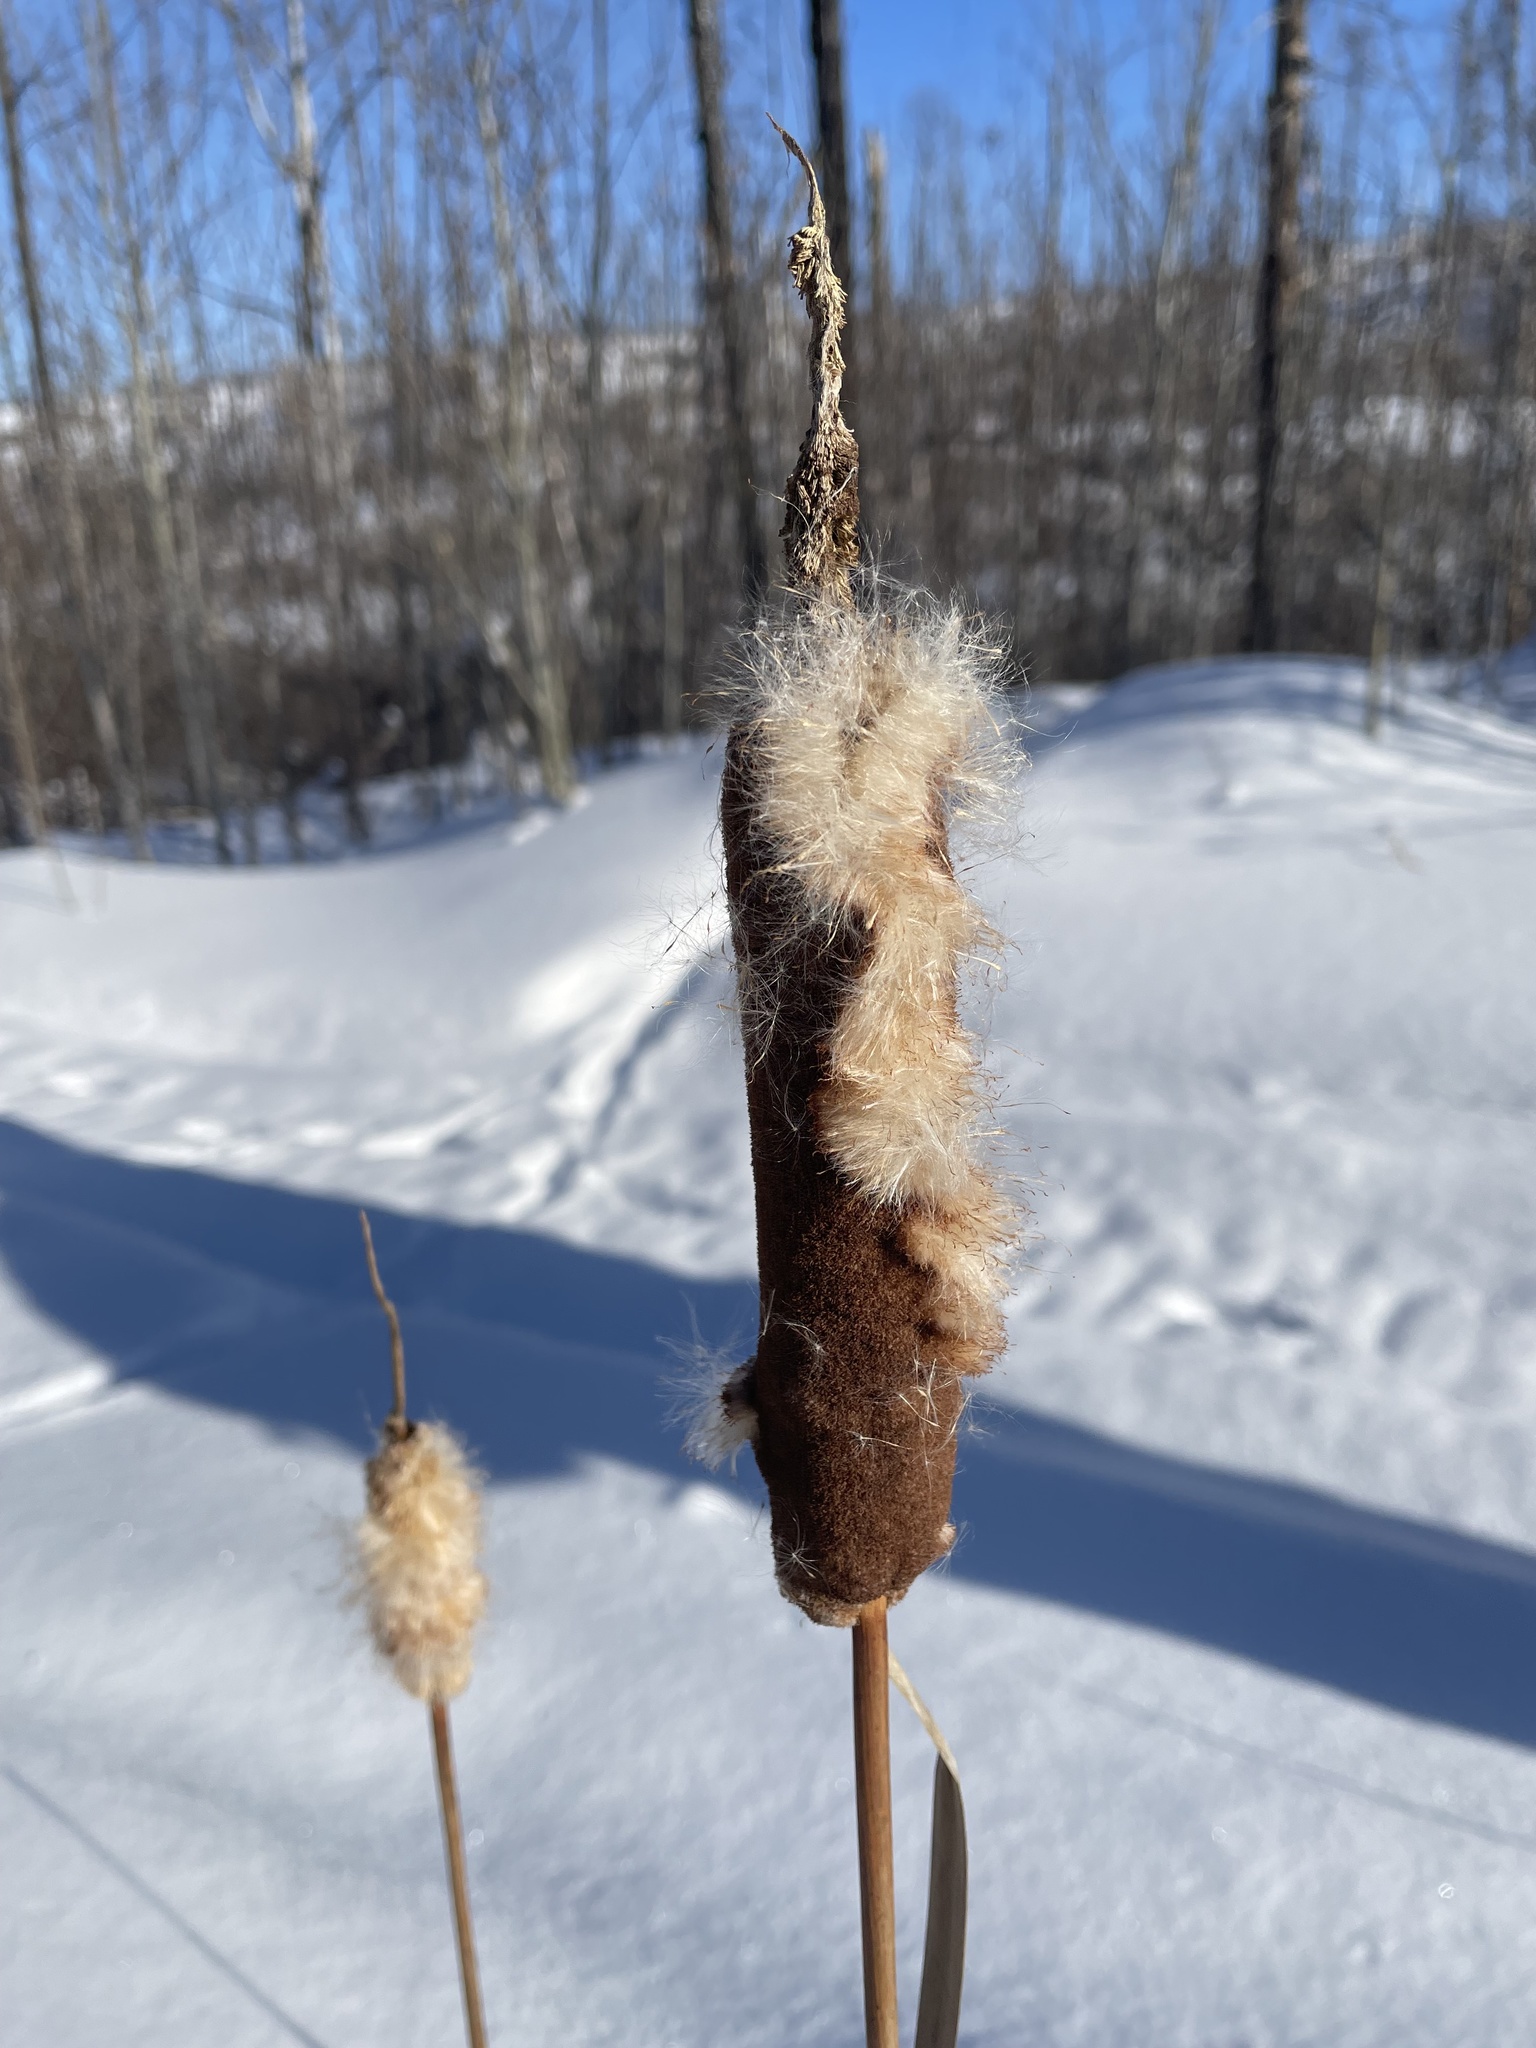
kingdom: Plantae
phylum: Tracheophyta
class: Liliopsida
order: Poales
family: Typhaceae
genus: Typha
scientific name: Typha latifolia
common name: Broadleaf cattail
